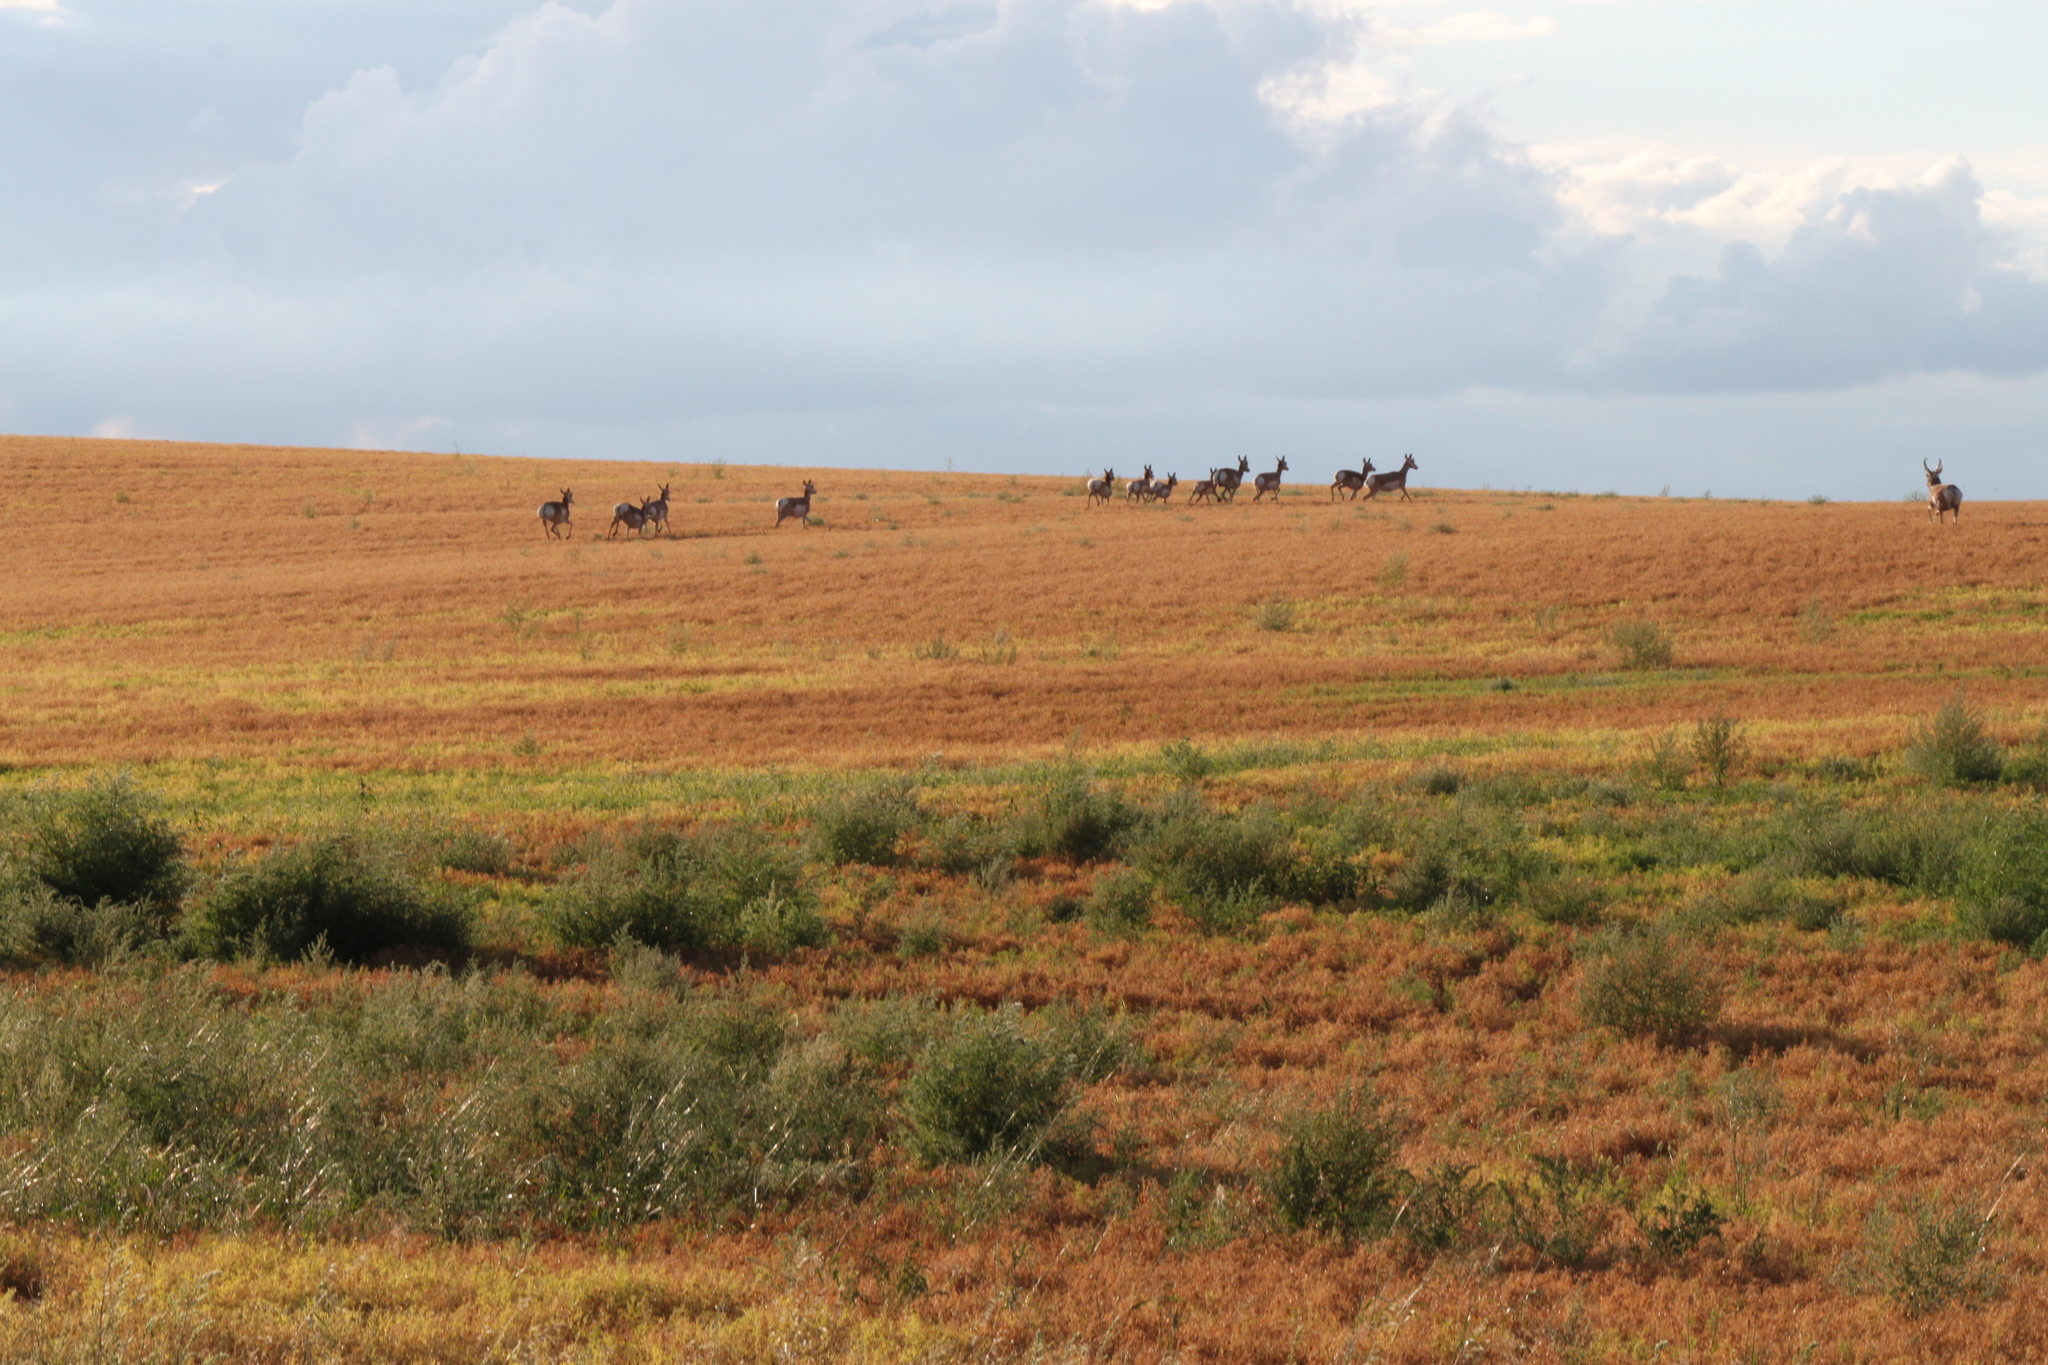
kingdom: Animalia
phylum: Chordata
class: Mammalia
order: Artiodactyla
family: Antilocapridae
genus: Antilocapra
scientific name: Antilocapra americana
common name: Pronghorn
